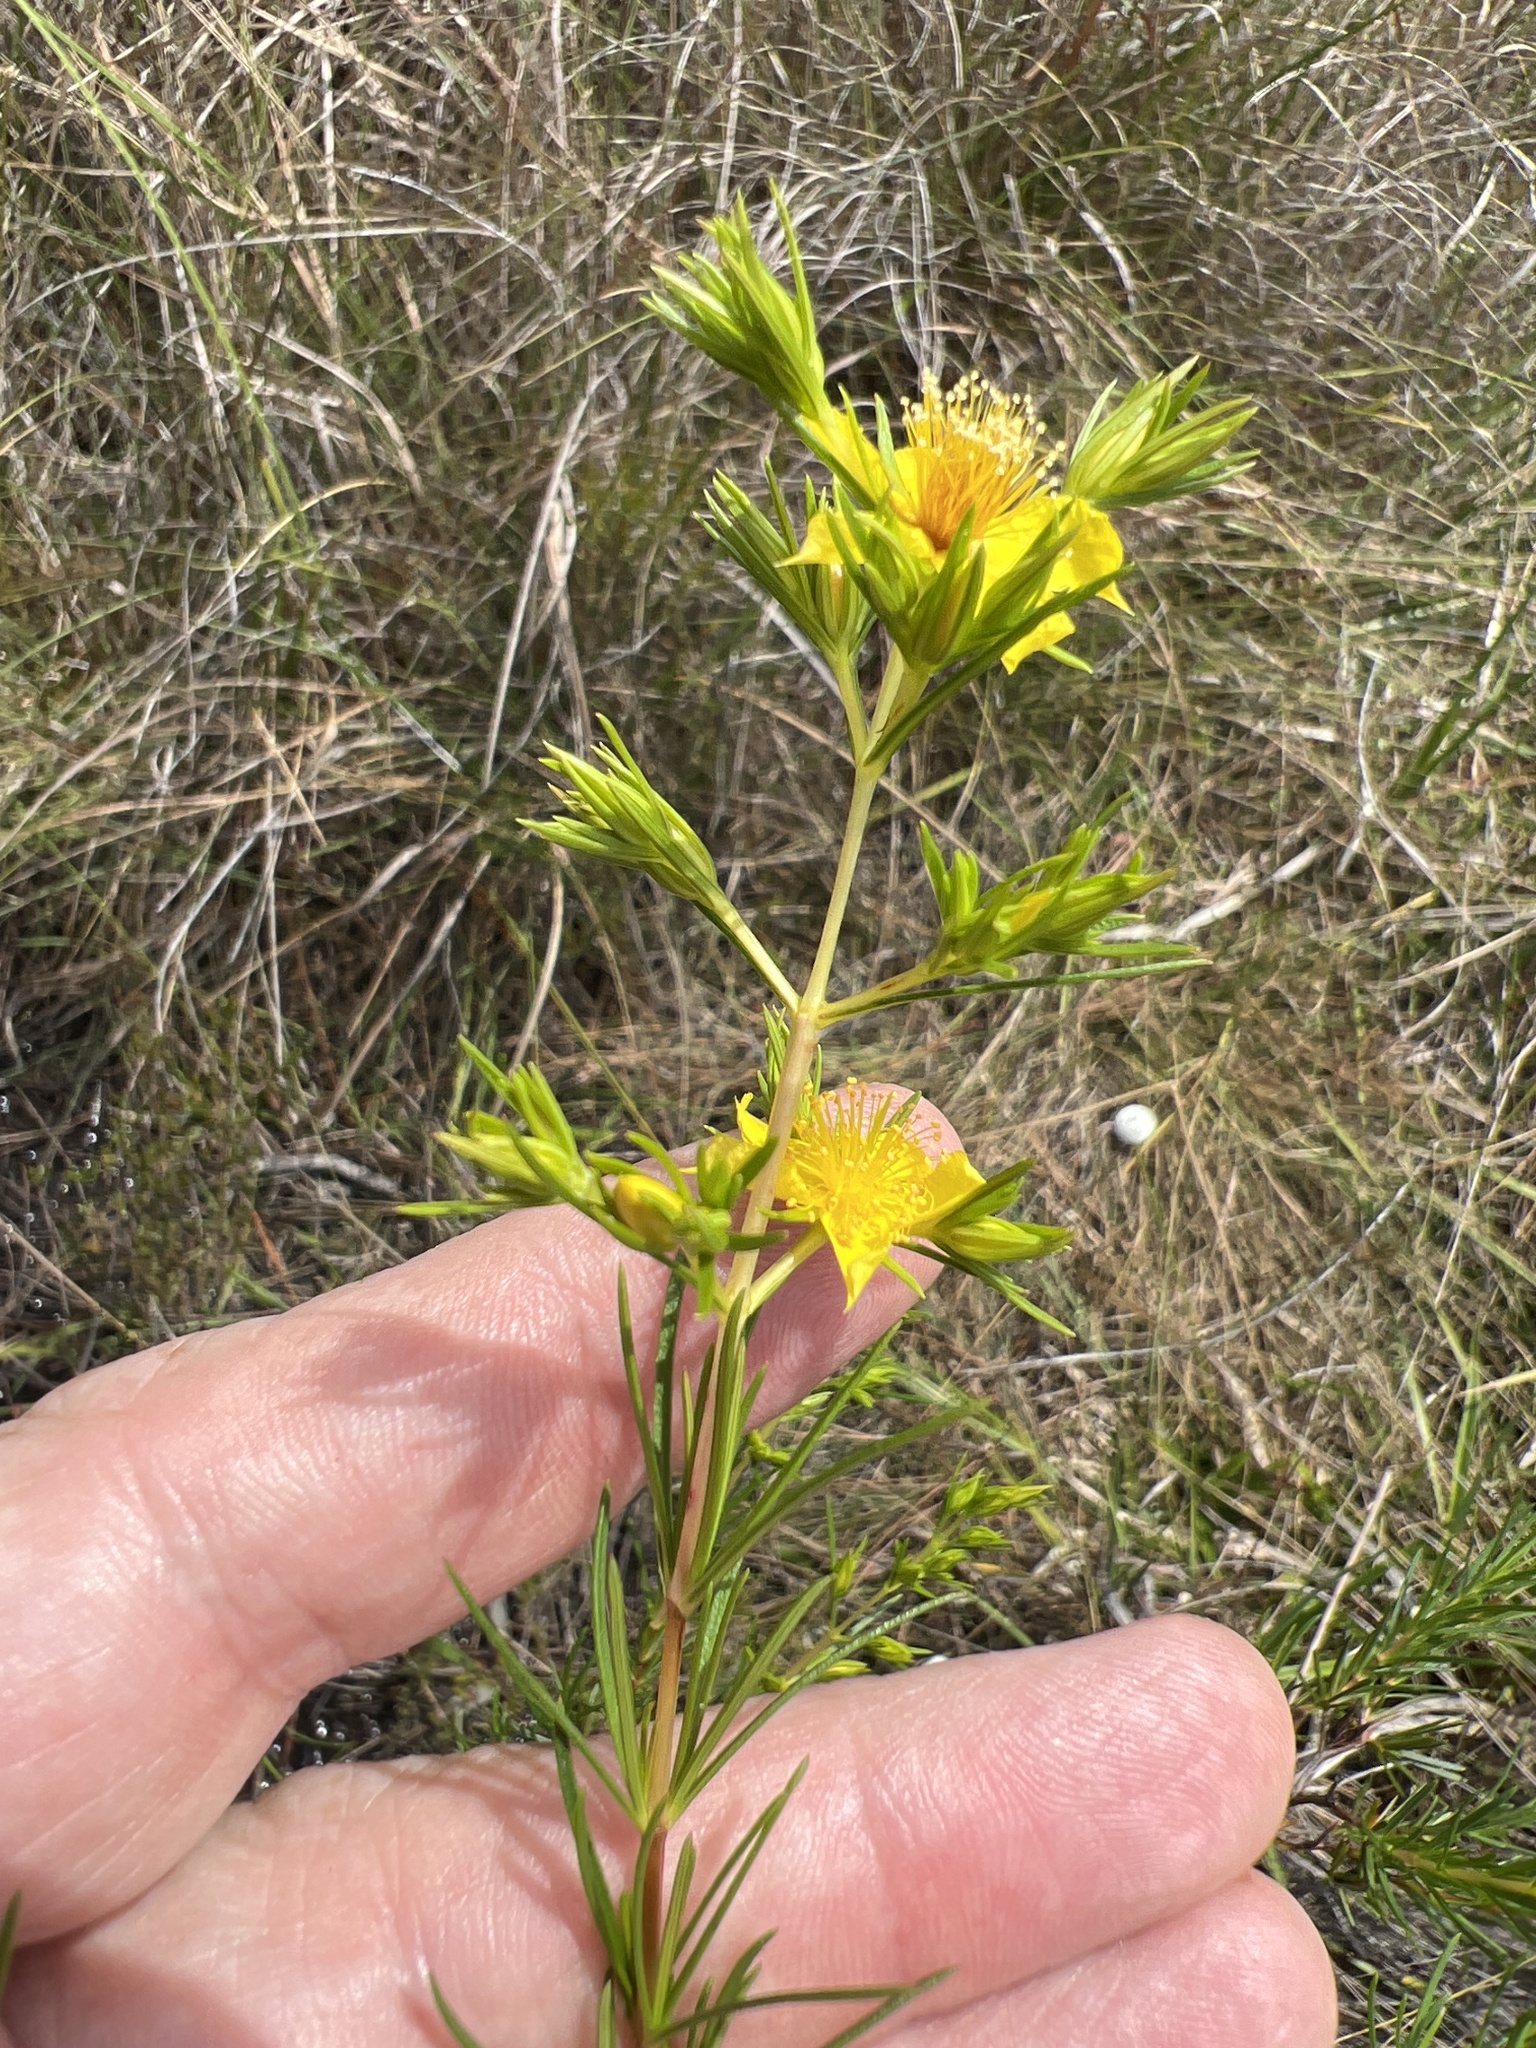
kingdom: Plantae
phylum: Tracheophyta
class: Magnoliopsida
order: Malpighiales
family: Hypericaceae
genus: Hypericum
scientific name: Hypericum nitidum
